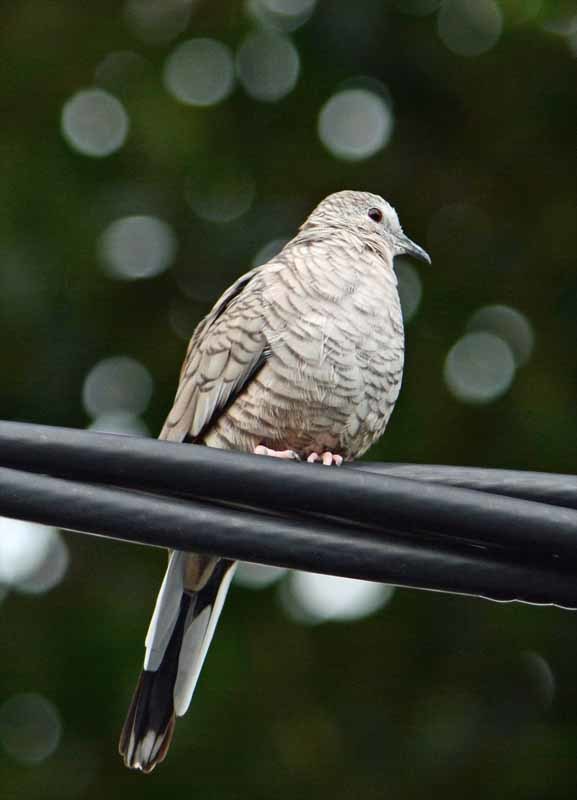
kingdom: Animalia
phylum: Chordata
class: Aves
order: Columbiformes
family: Columbidae
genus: Columbina
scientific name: Columbina inca
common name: Inca dove
